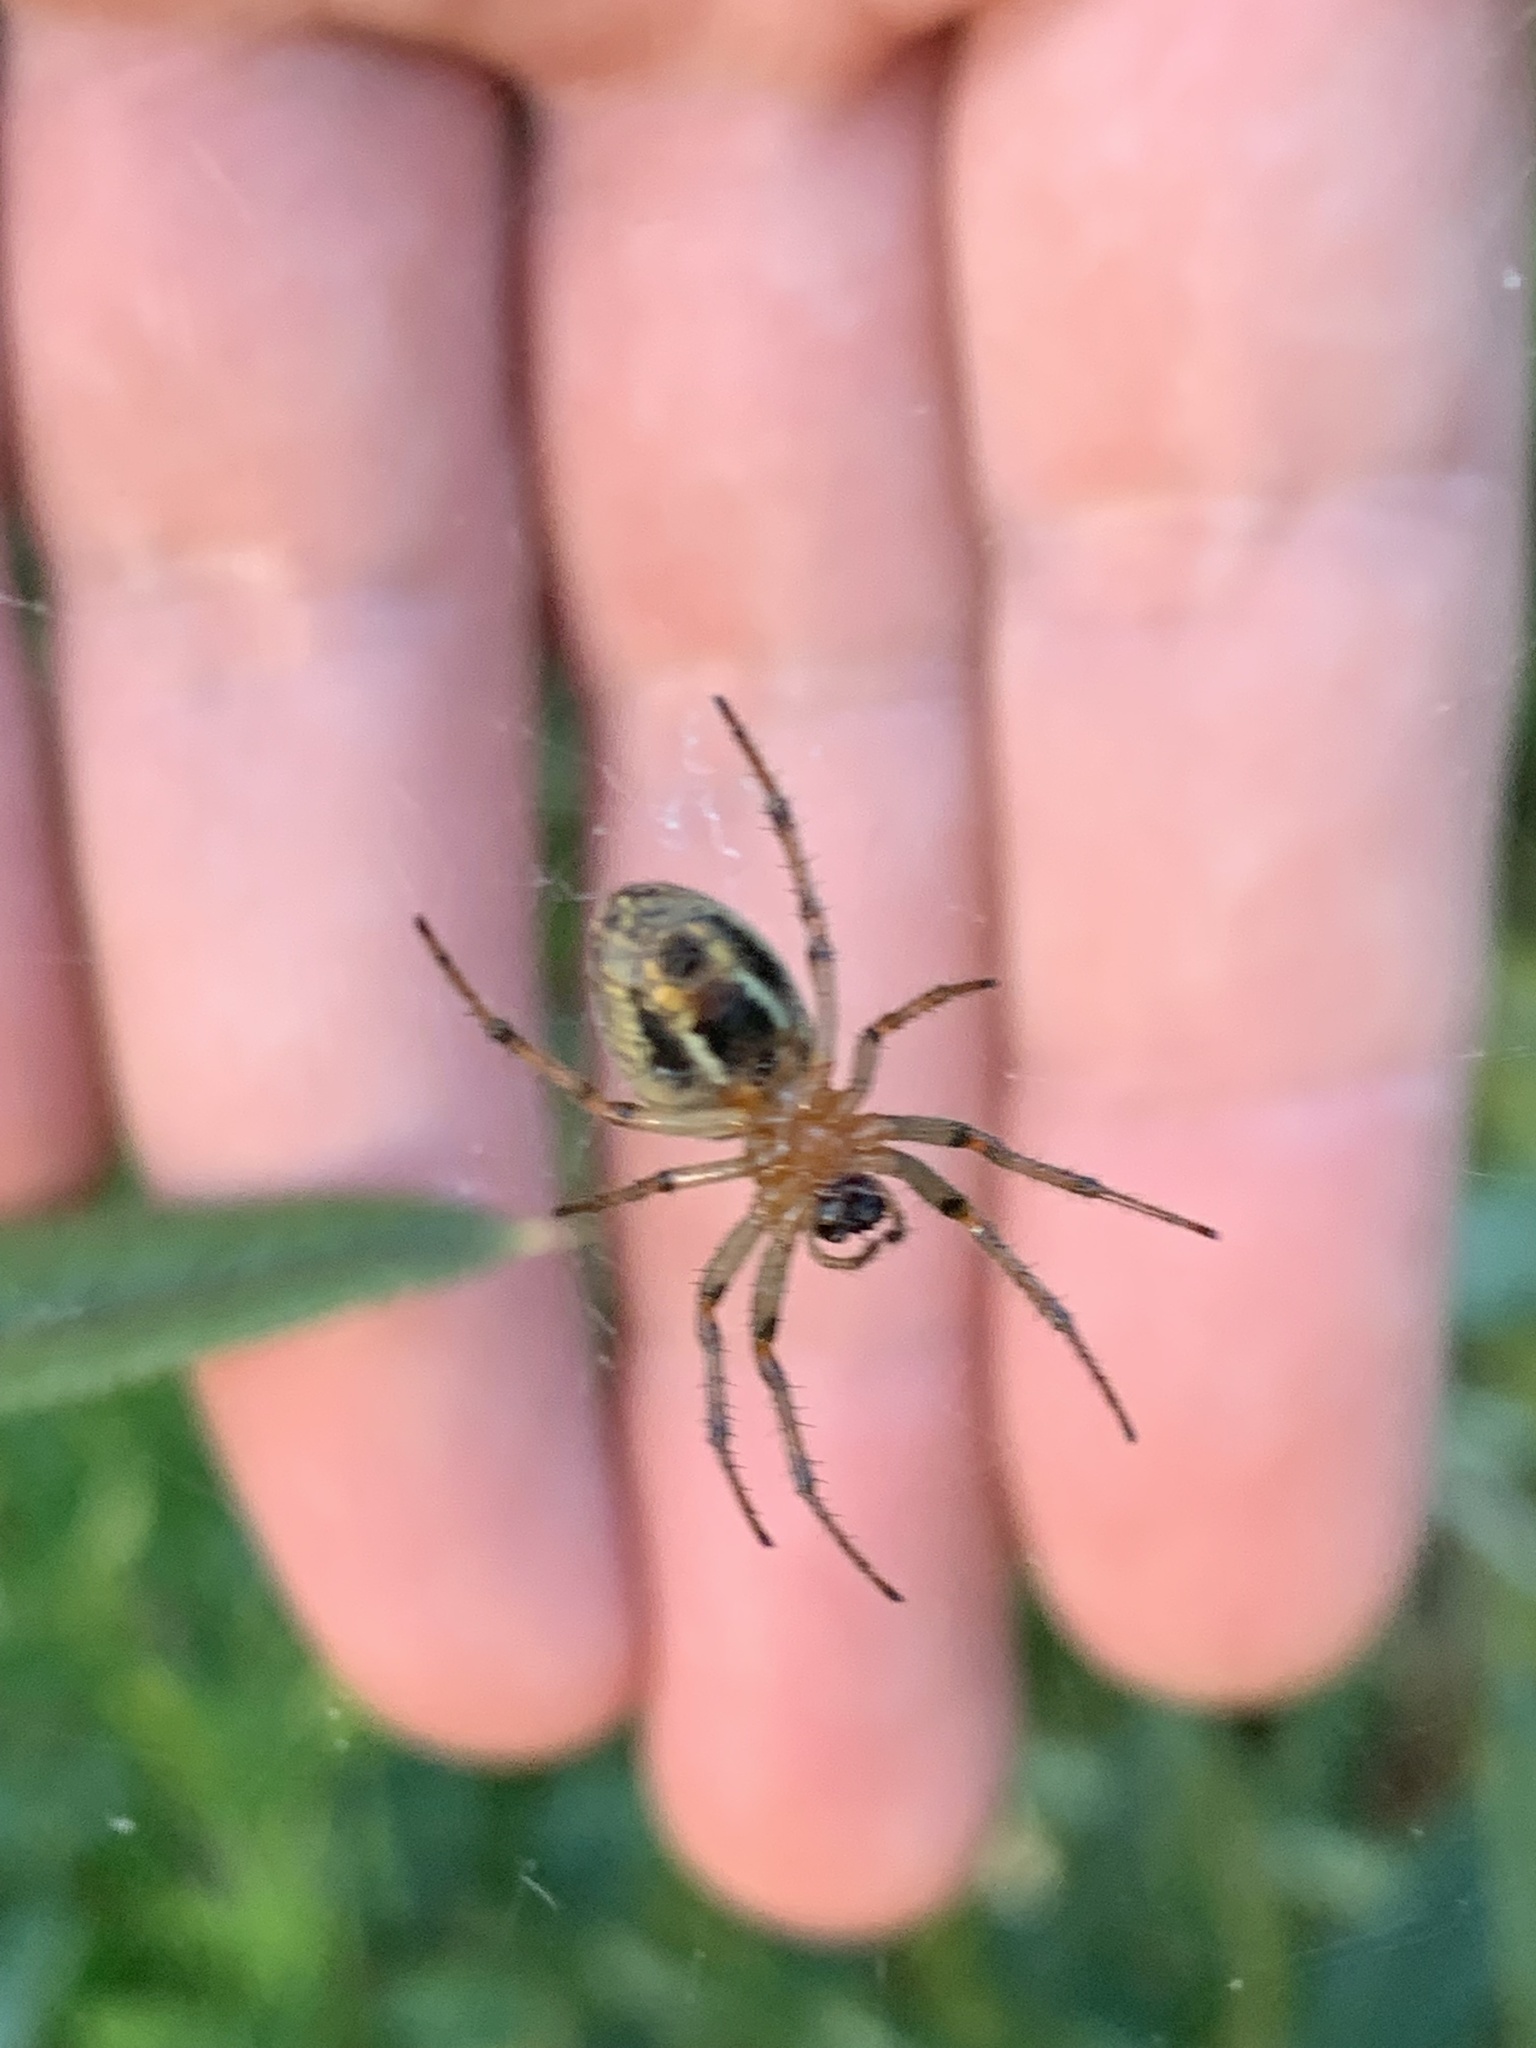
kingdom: Animalia
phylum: Arthropoda
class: Arachnida
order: Araneae
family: Araneidae
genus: Alpaida
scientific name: Alpaida veniliae
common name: Orb weavers
